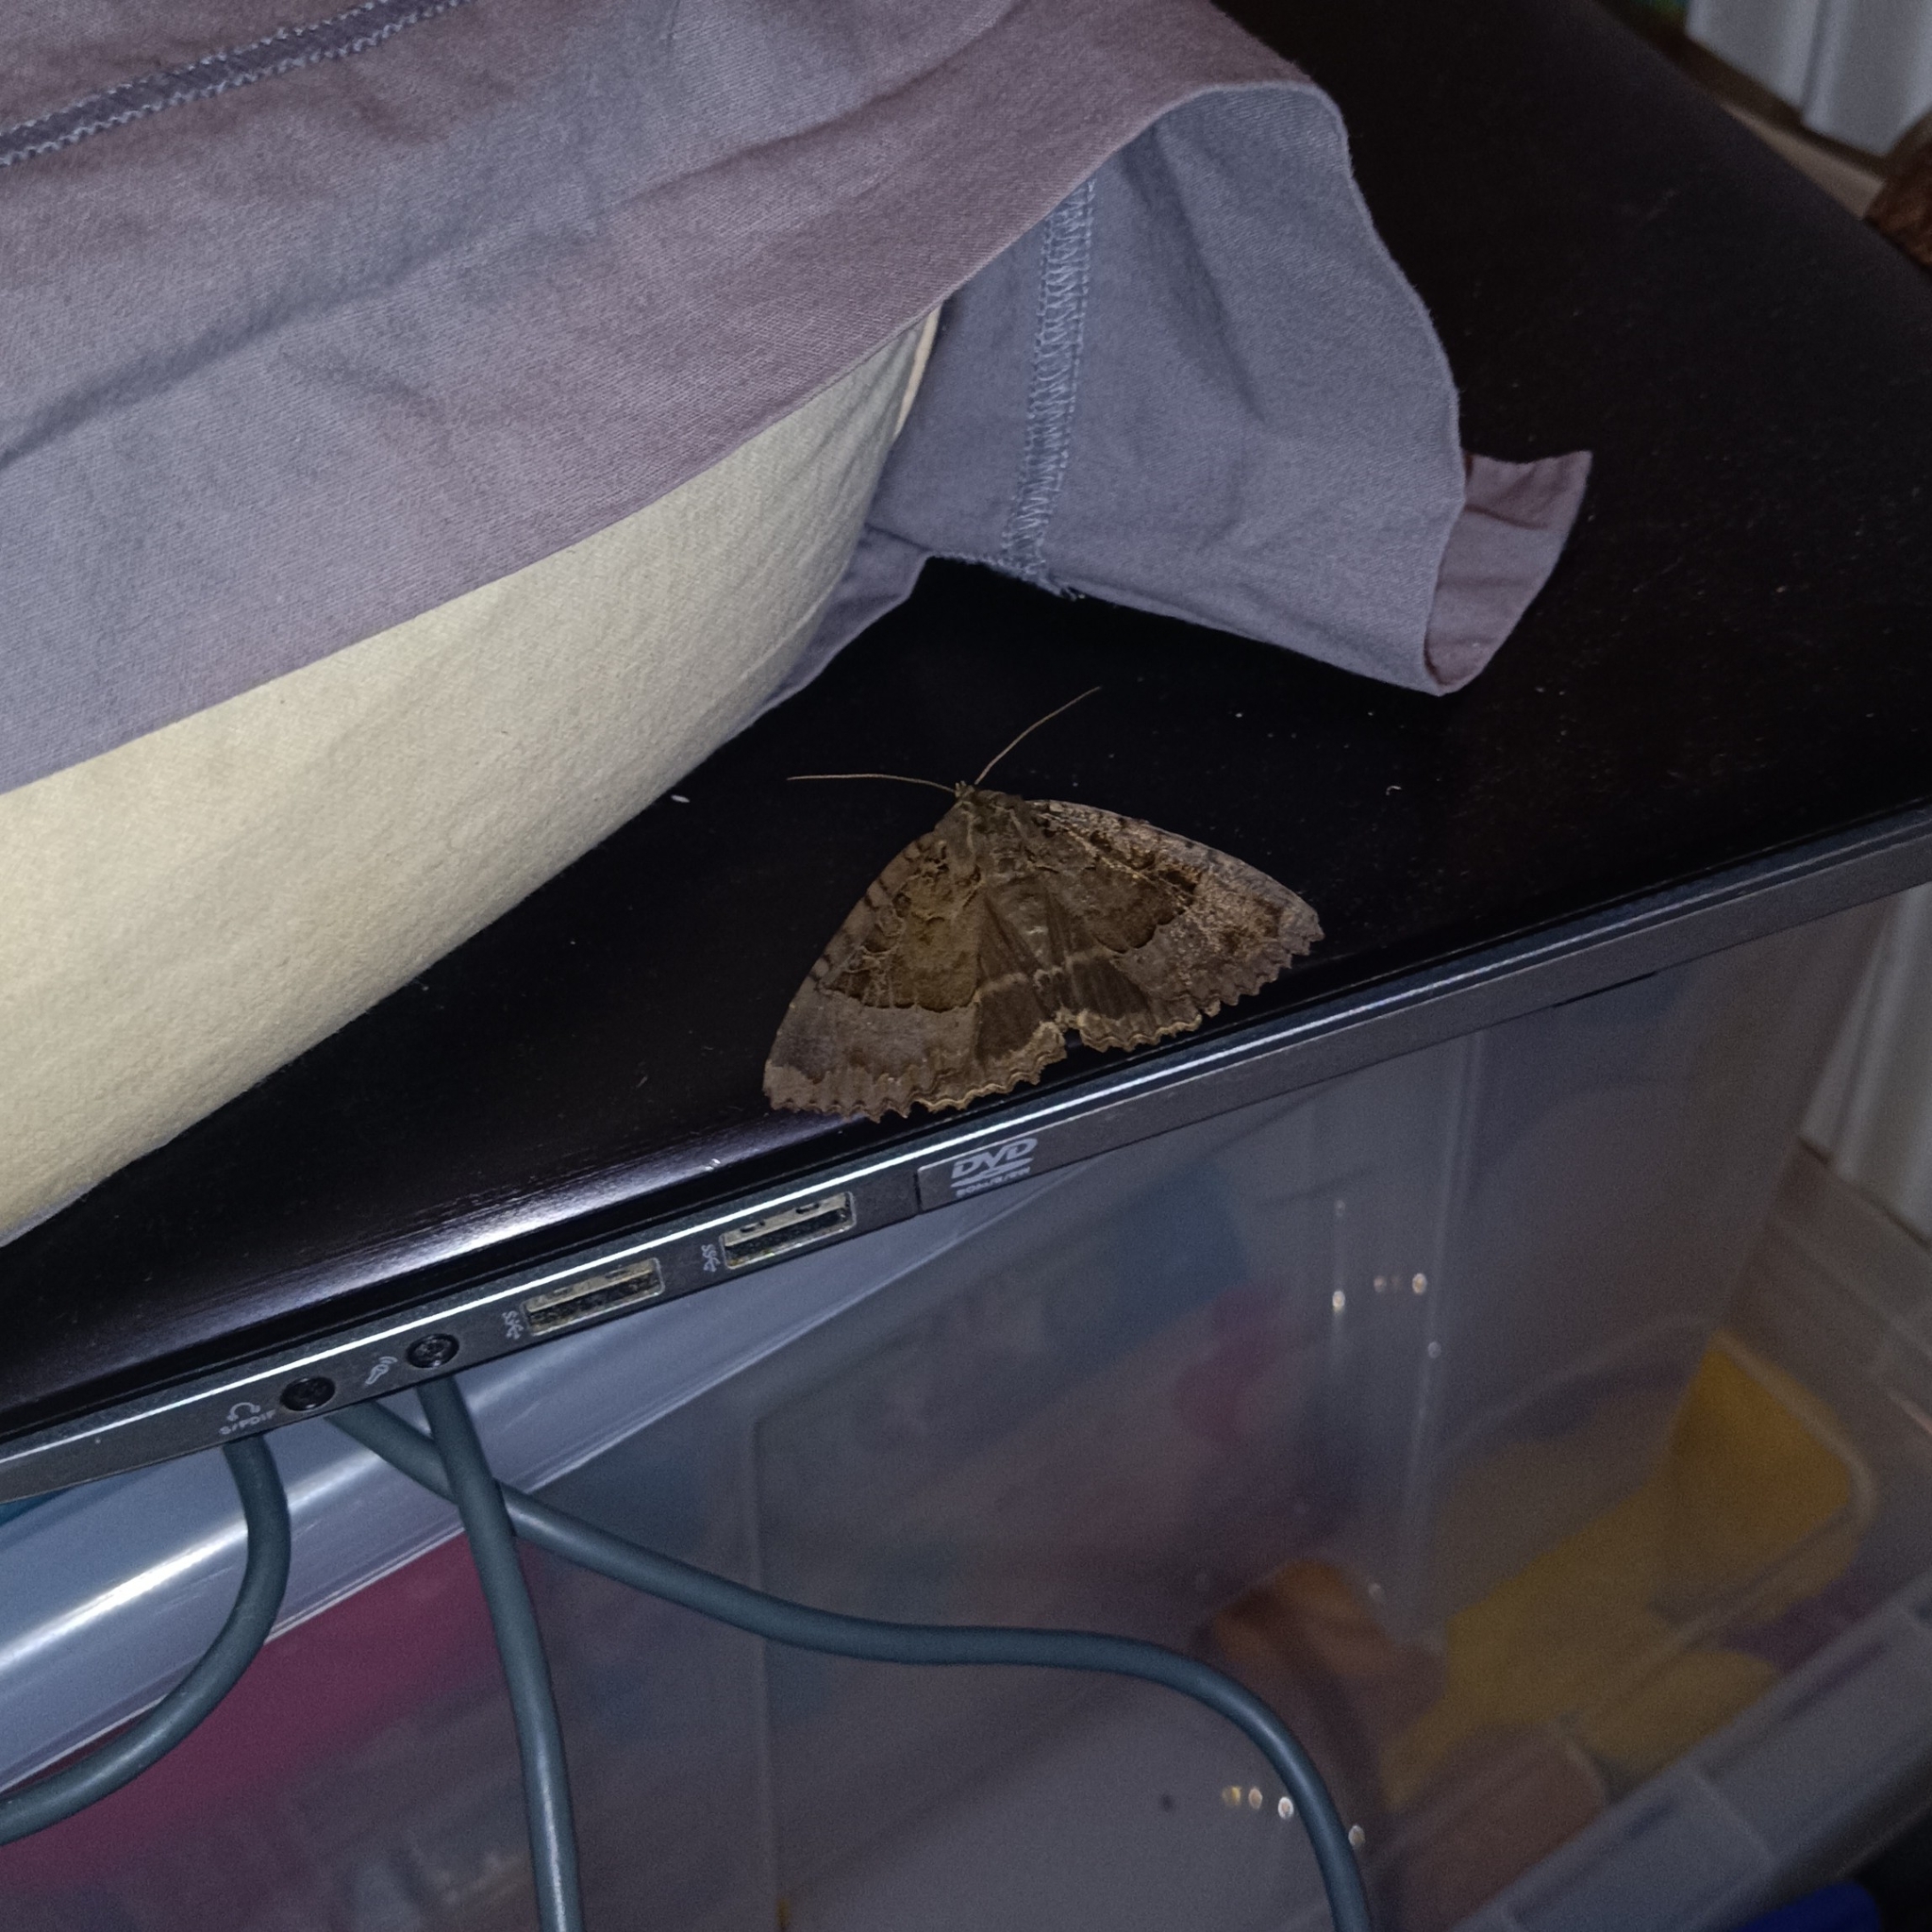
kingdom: Animalia
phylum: Arthropoda
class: Insecta
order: Lepidoptera
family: Noctuidae
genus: Mormo
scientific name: Mormo maura
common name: Old lady
